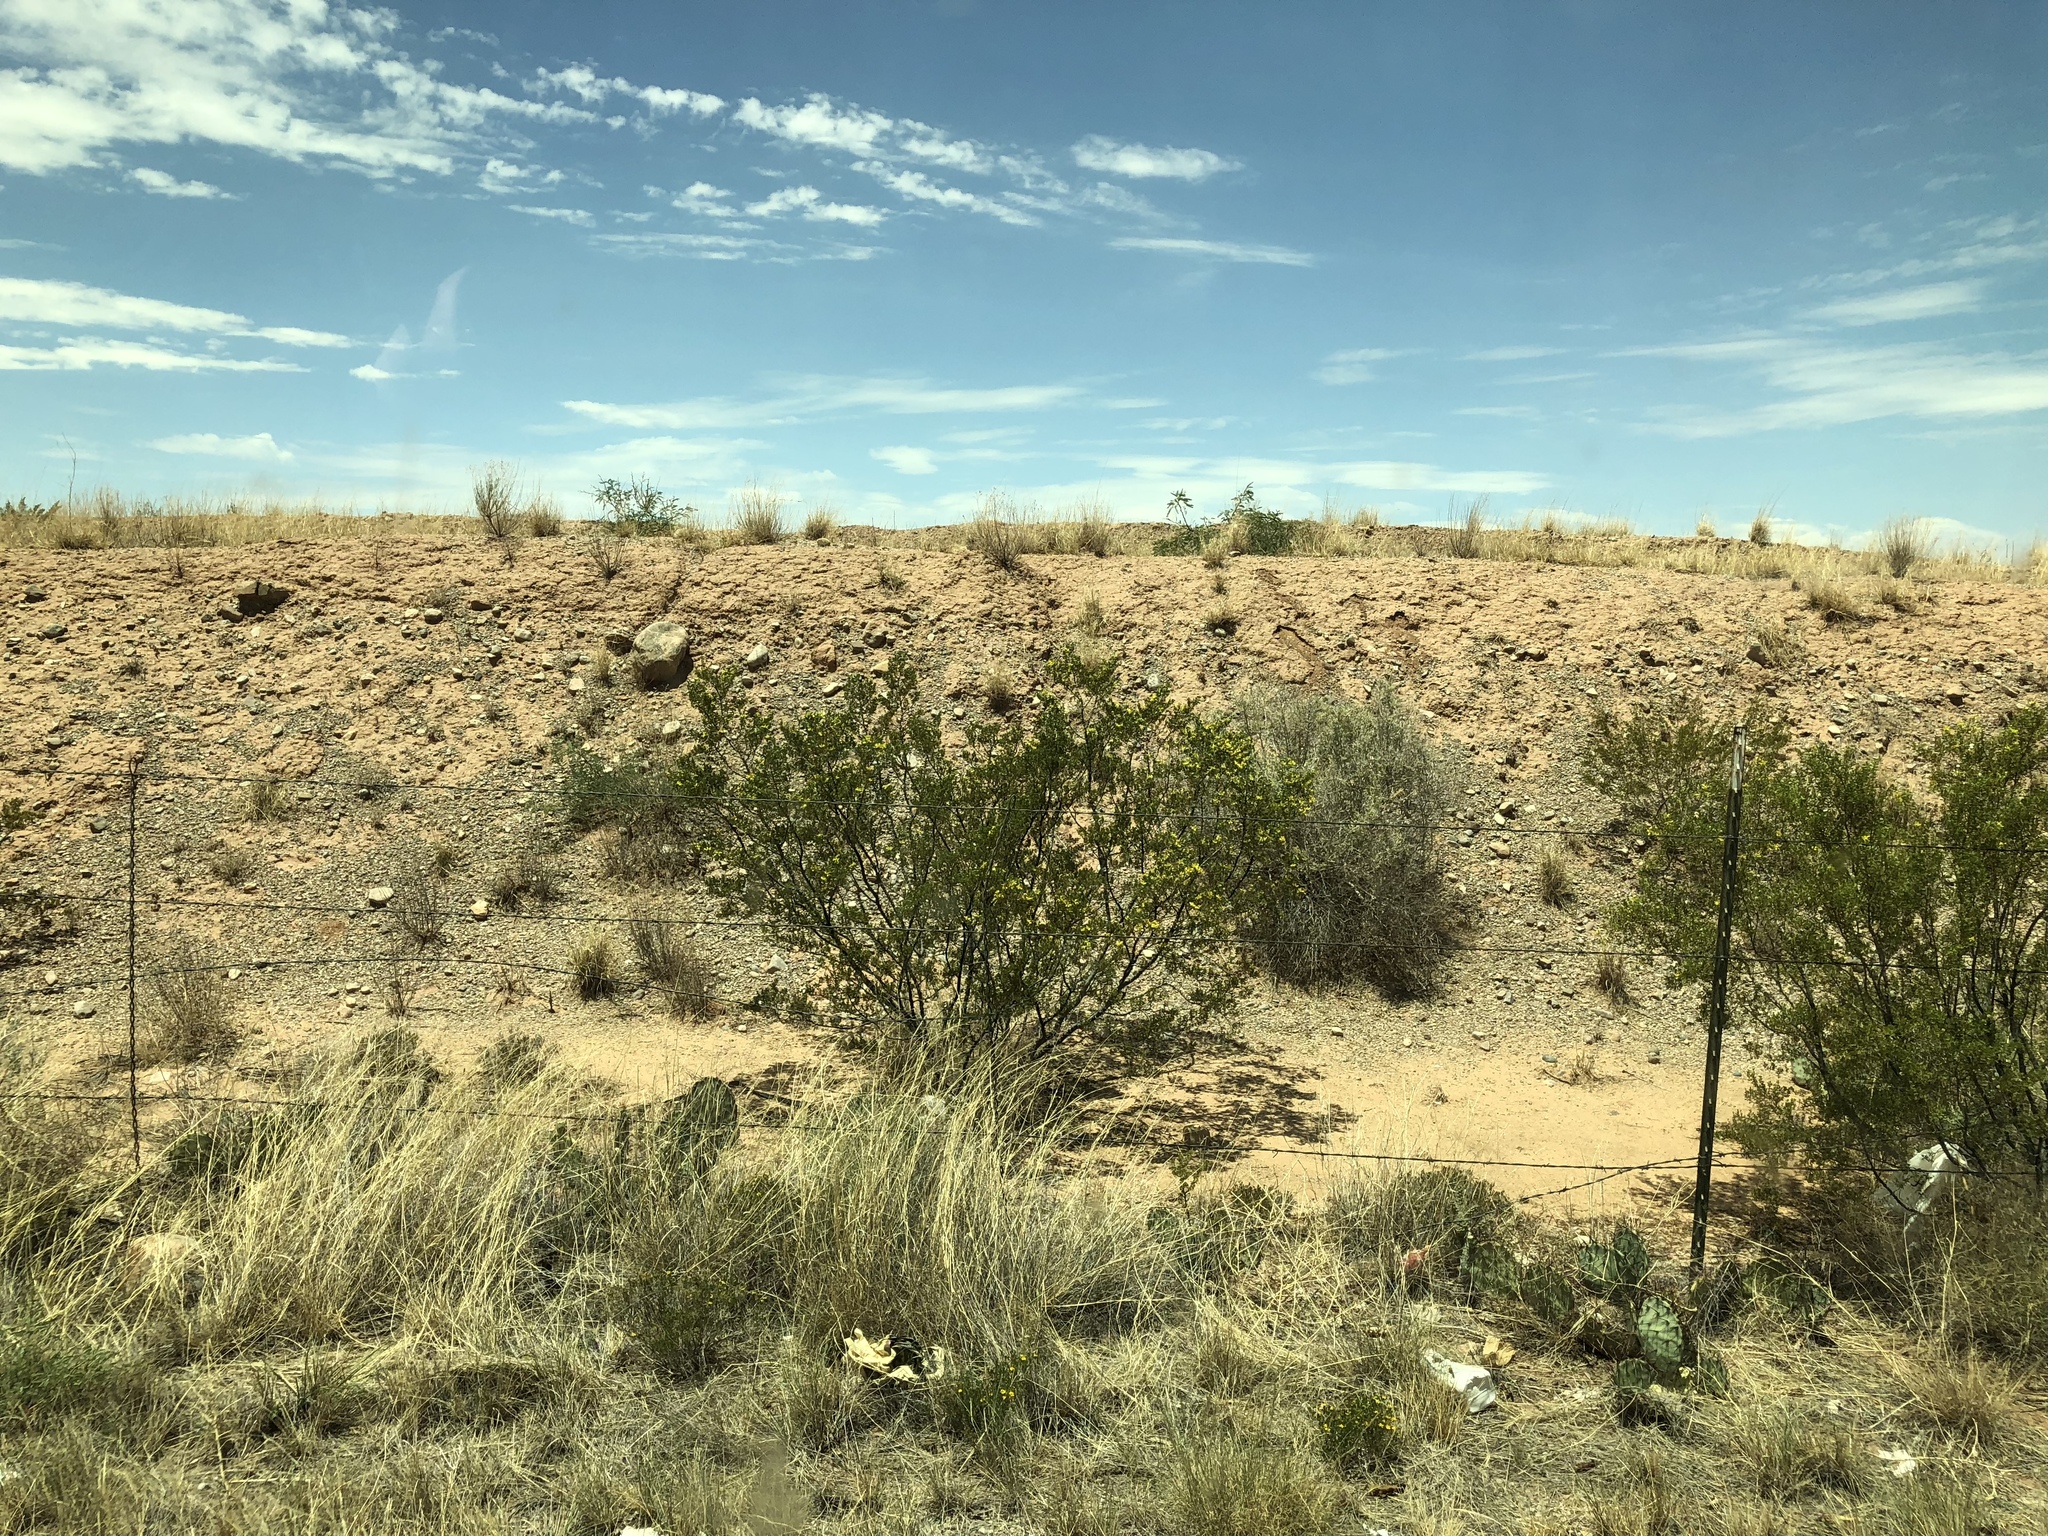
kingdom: Plantae
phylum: Tracheophyta
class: Magnoliopsida
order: Zygophyllales
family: Zygophyllaceae
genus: Larrea
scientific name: Larrea tridentata
